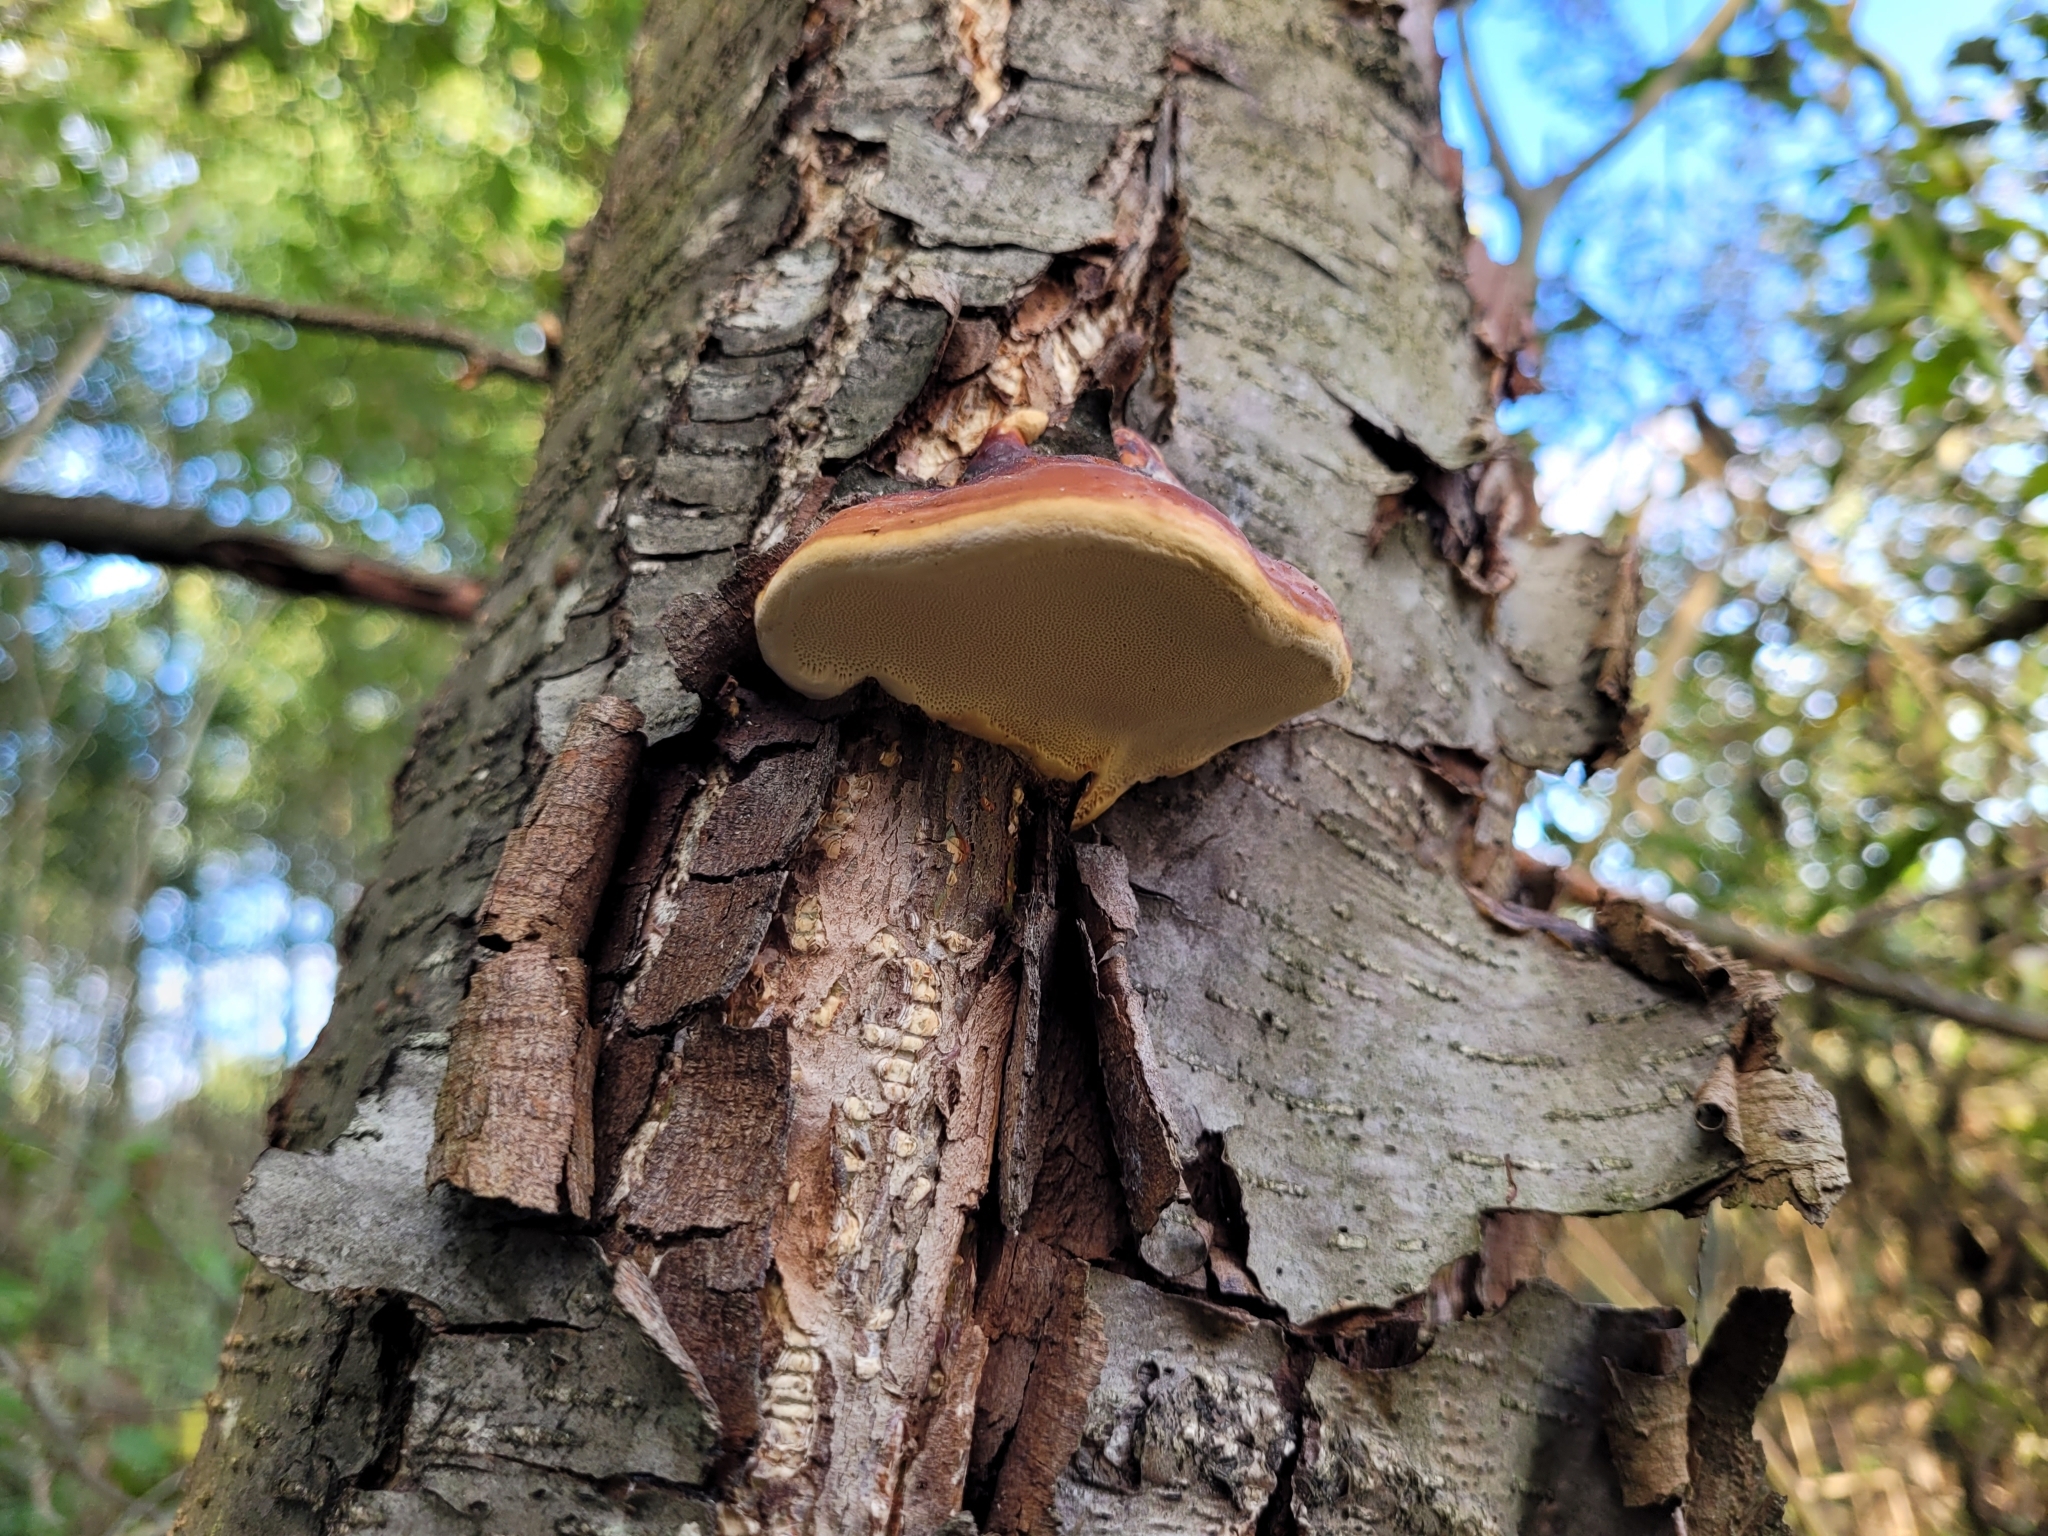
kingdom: Fungi
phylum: Basidiomycota
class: Agaricomycetes
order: Polyporales
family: Fomitopsidaceae
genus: Fomitopsis
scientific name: Fomitopsis pinicola
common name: Red-belted bracket
